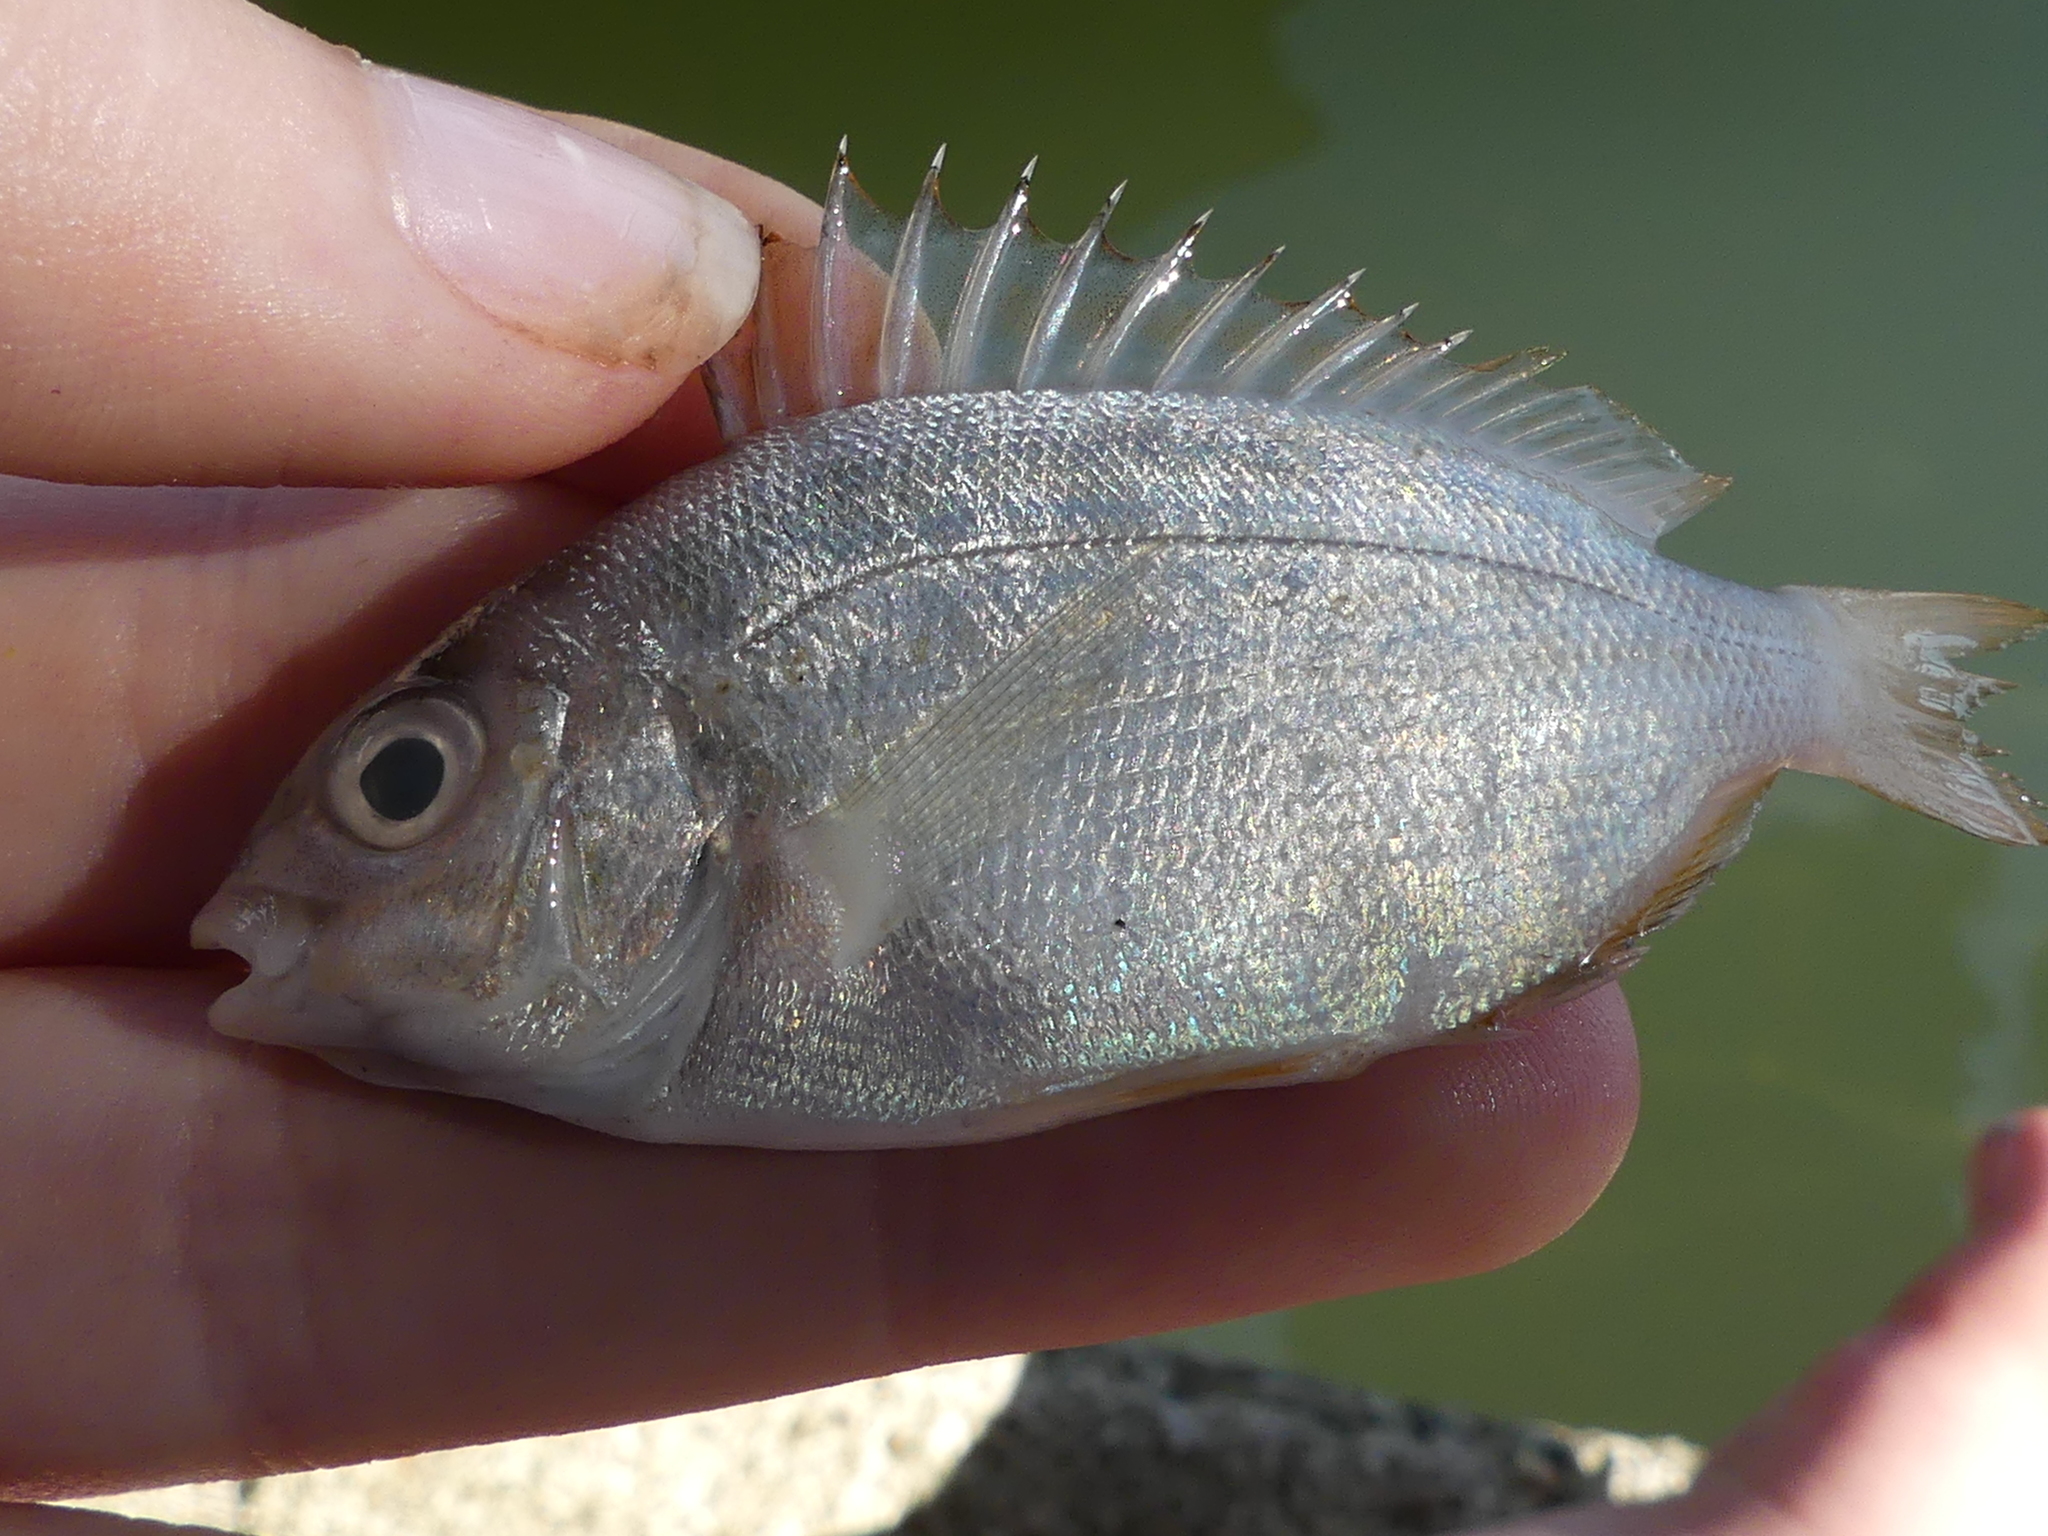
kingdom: Animalia
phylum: Chordata
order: Perciformes
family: Sparidae
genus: Lagodon
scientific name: Lagodon rhomboides
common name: Pinfish
